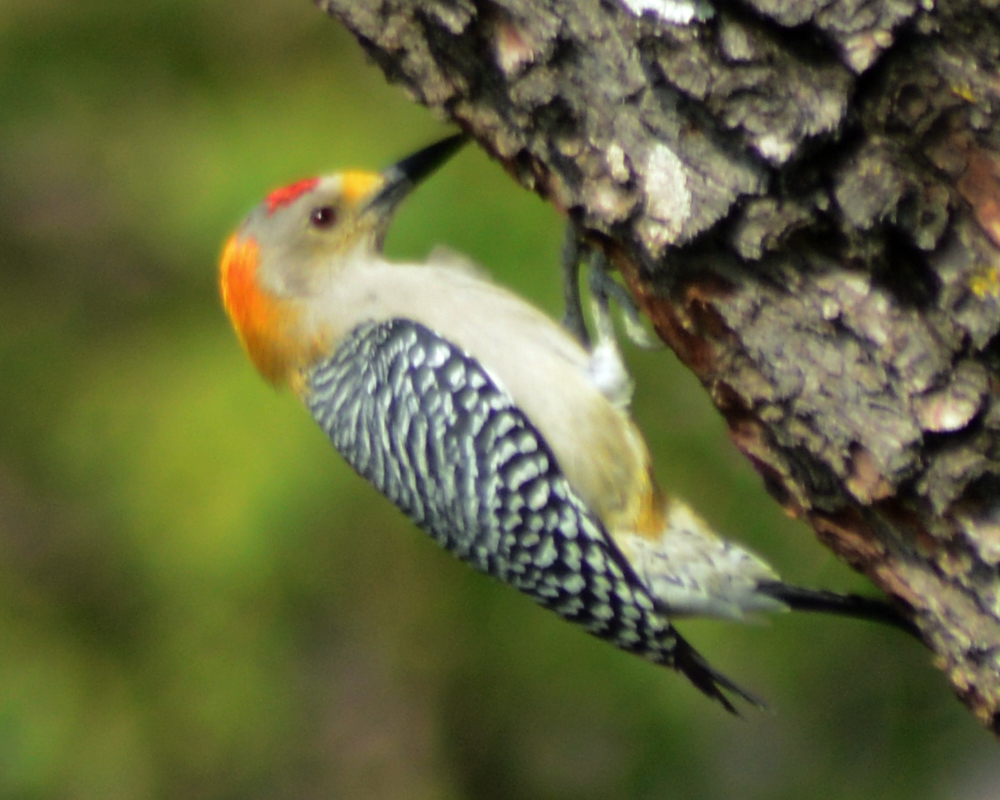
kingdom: Animalia
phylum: Chordata
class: Aves
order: Piciformes
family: Picidae
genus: Melanerpes
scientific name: Melanerpes aurifrons
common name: Golden-fronted woodpecker
